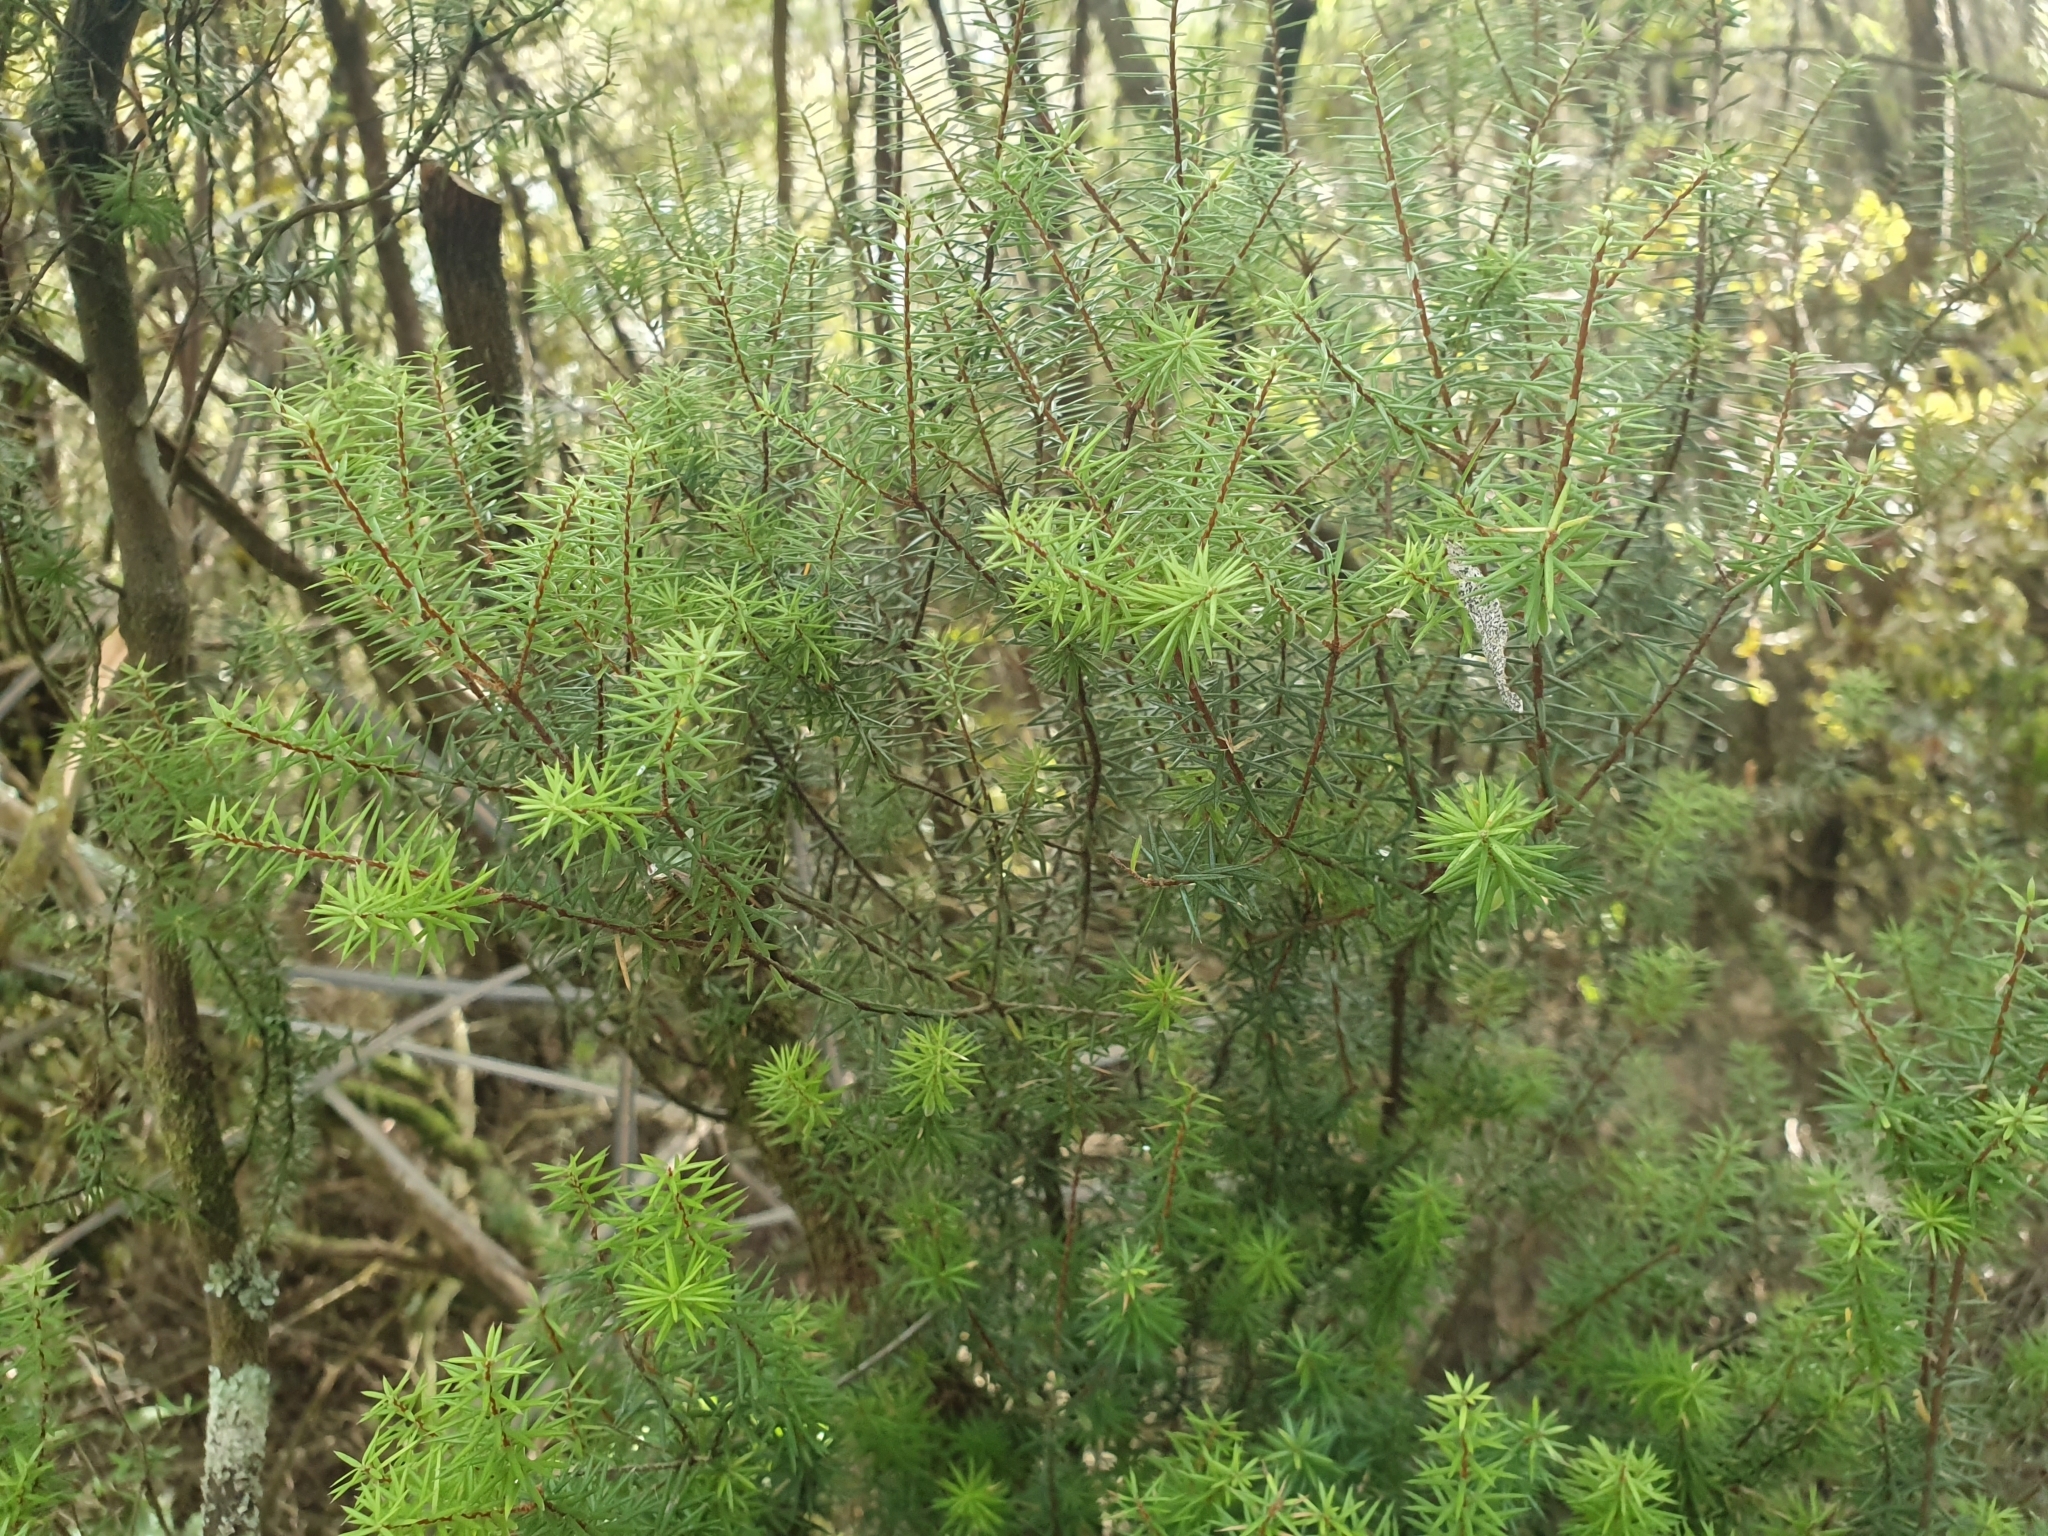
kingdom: Plantae
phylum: Tracheophyta
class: Magnoliopsida
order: Ericales
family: Ericaceae
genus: Leptecophylla
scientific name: Leptecophylla juniperina
